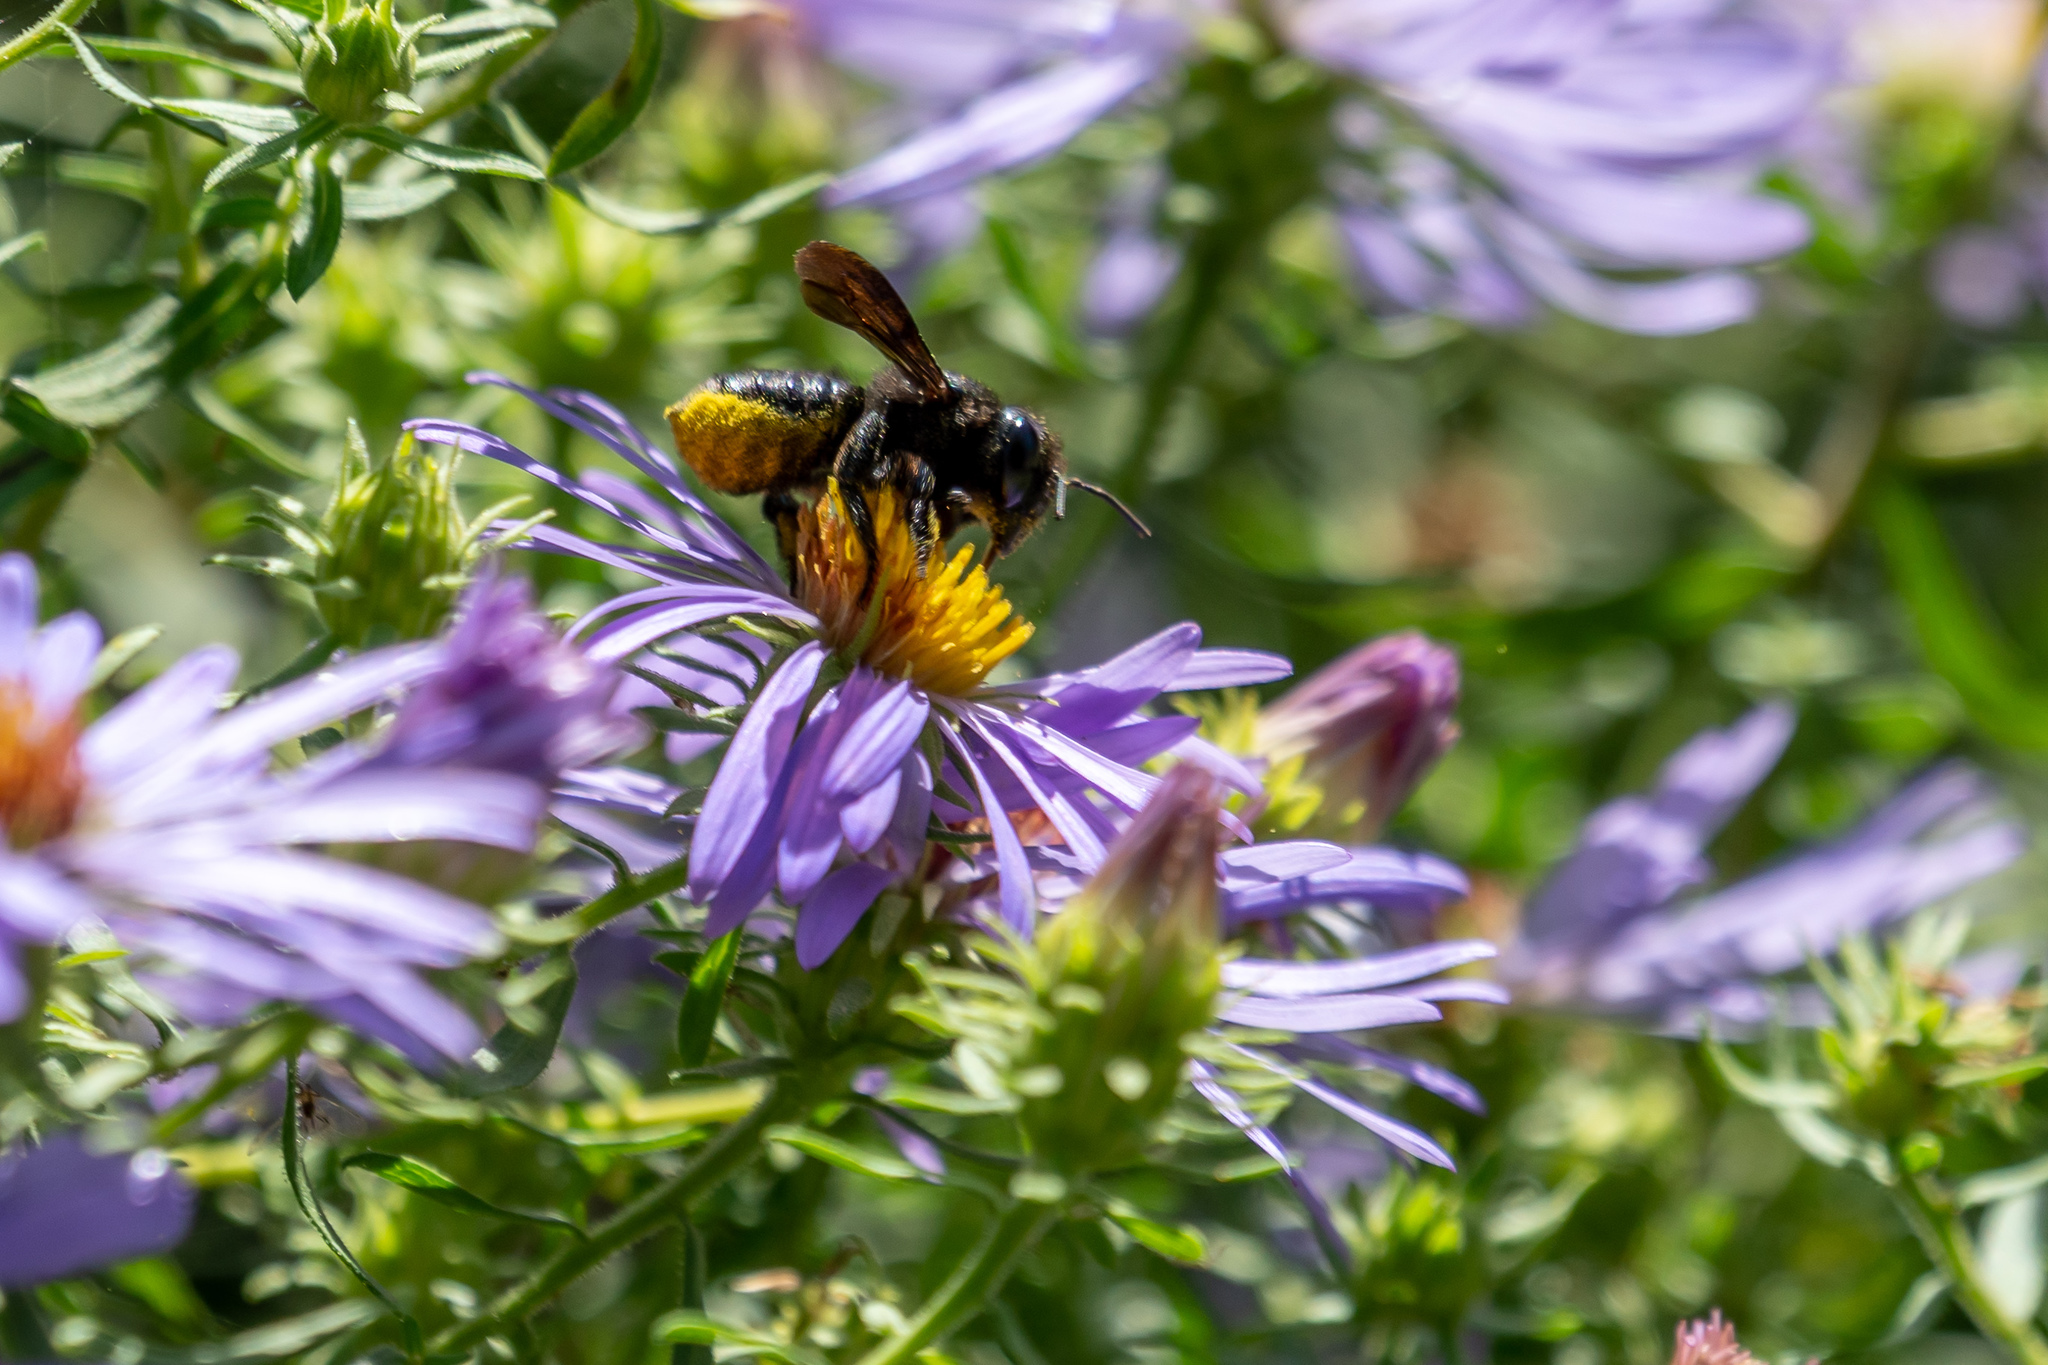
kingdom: Animalia
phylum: Arthropoda
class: Insecta
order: Hymenoptera
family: Megachilidae
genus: Megachile
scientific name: Megachile xylocopoides
